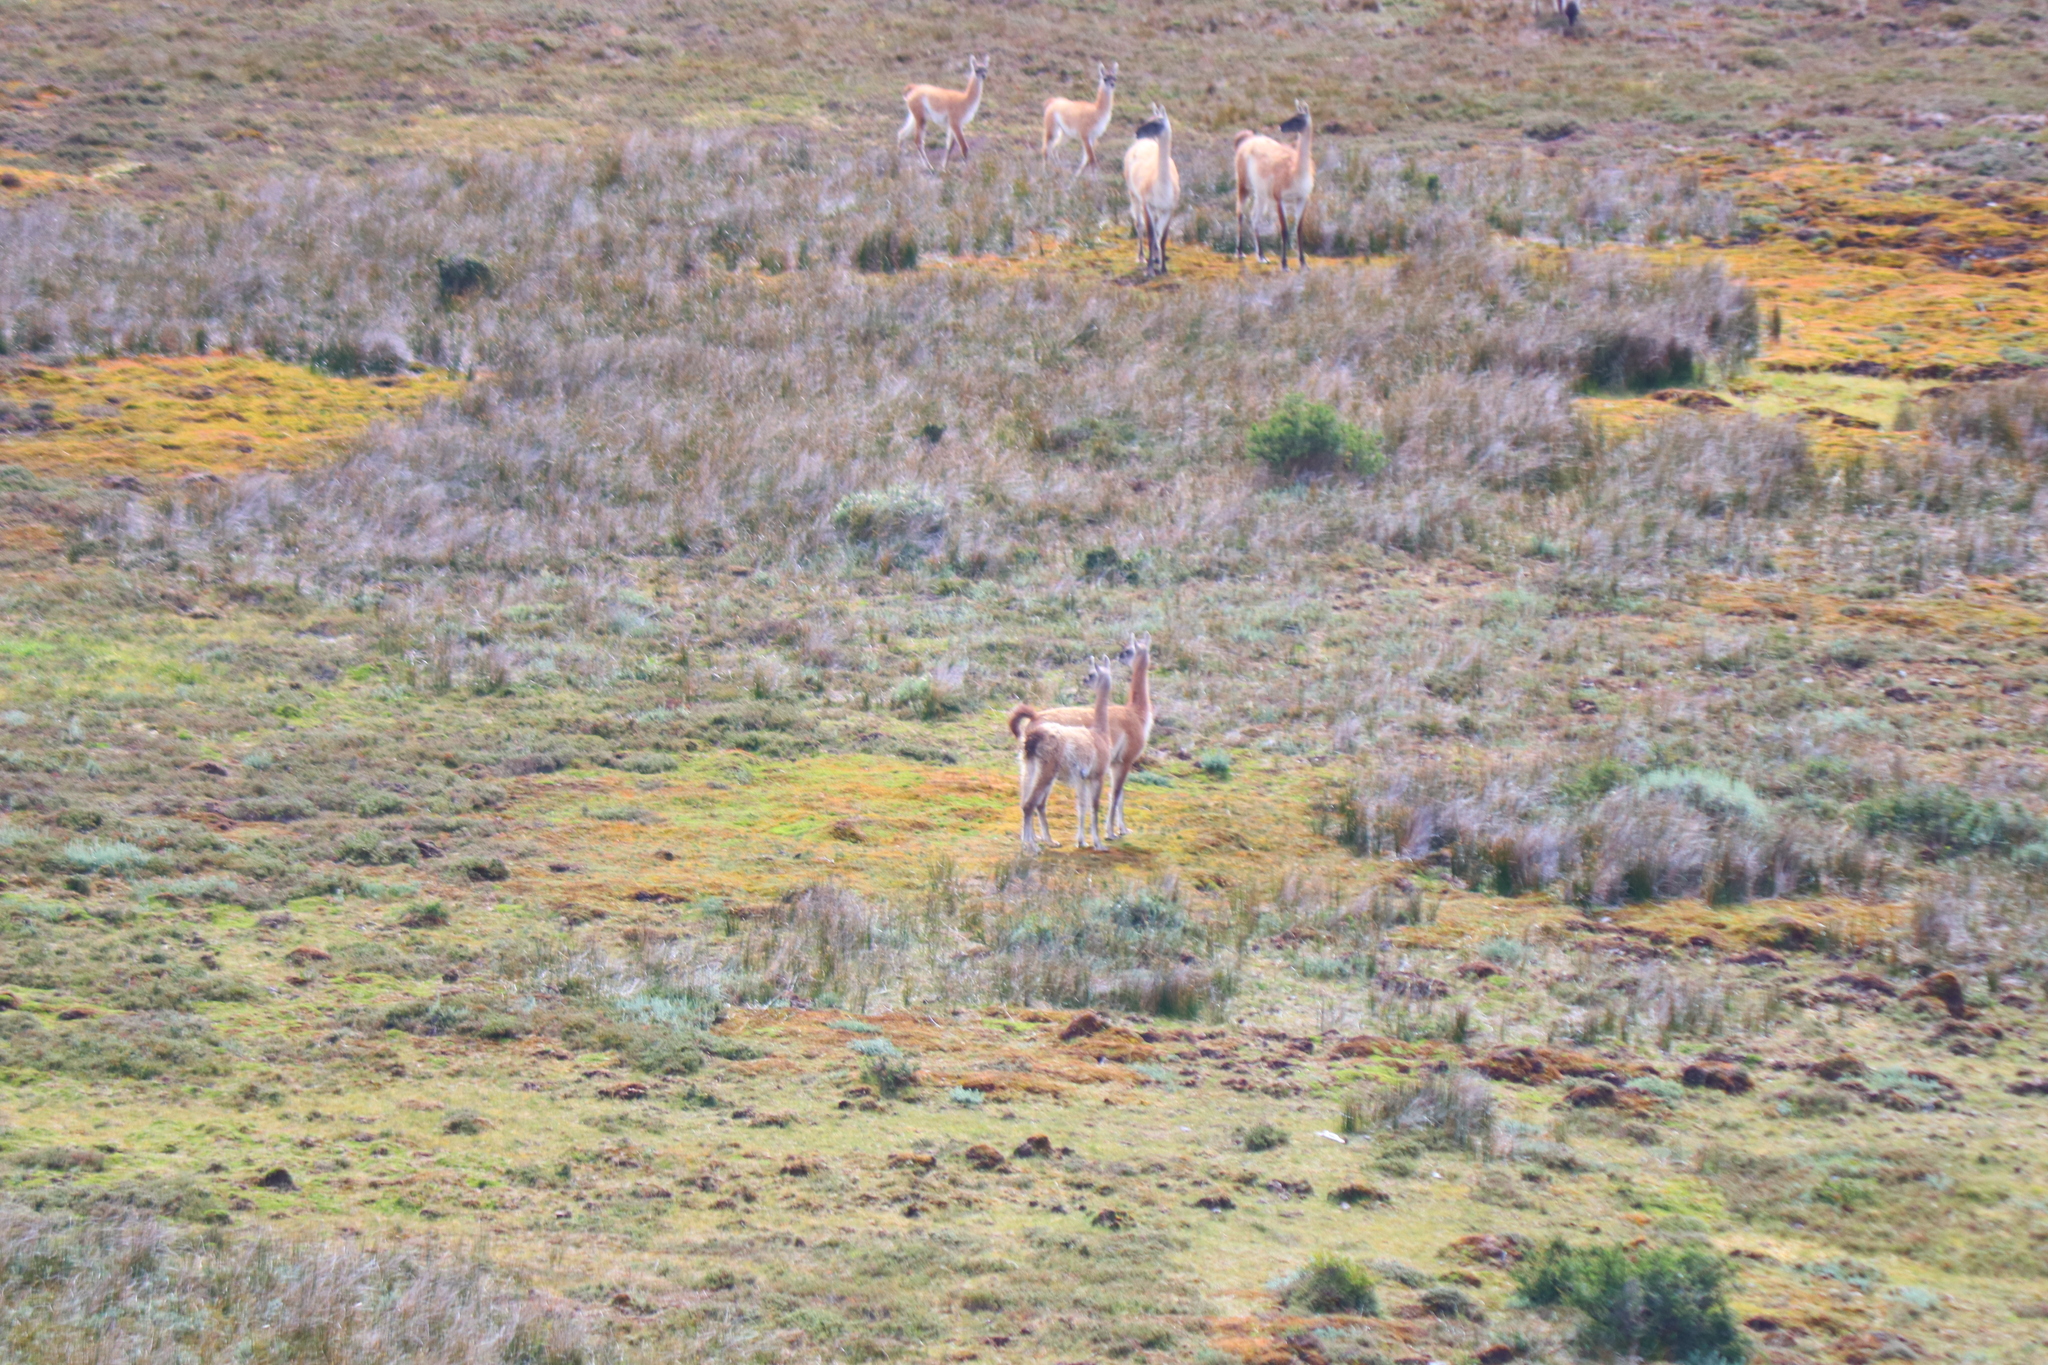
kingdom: Animalia
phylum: Chordata
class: Mammalia
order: Artiodactyla
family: Camelidae
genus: Lama
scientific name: Lama glama
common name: Llama
